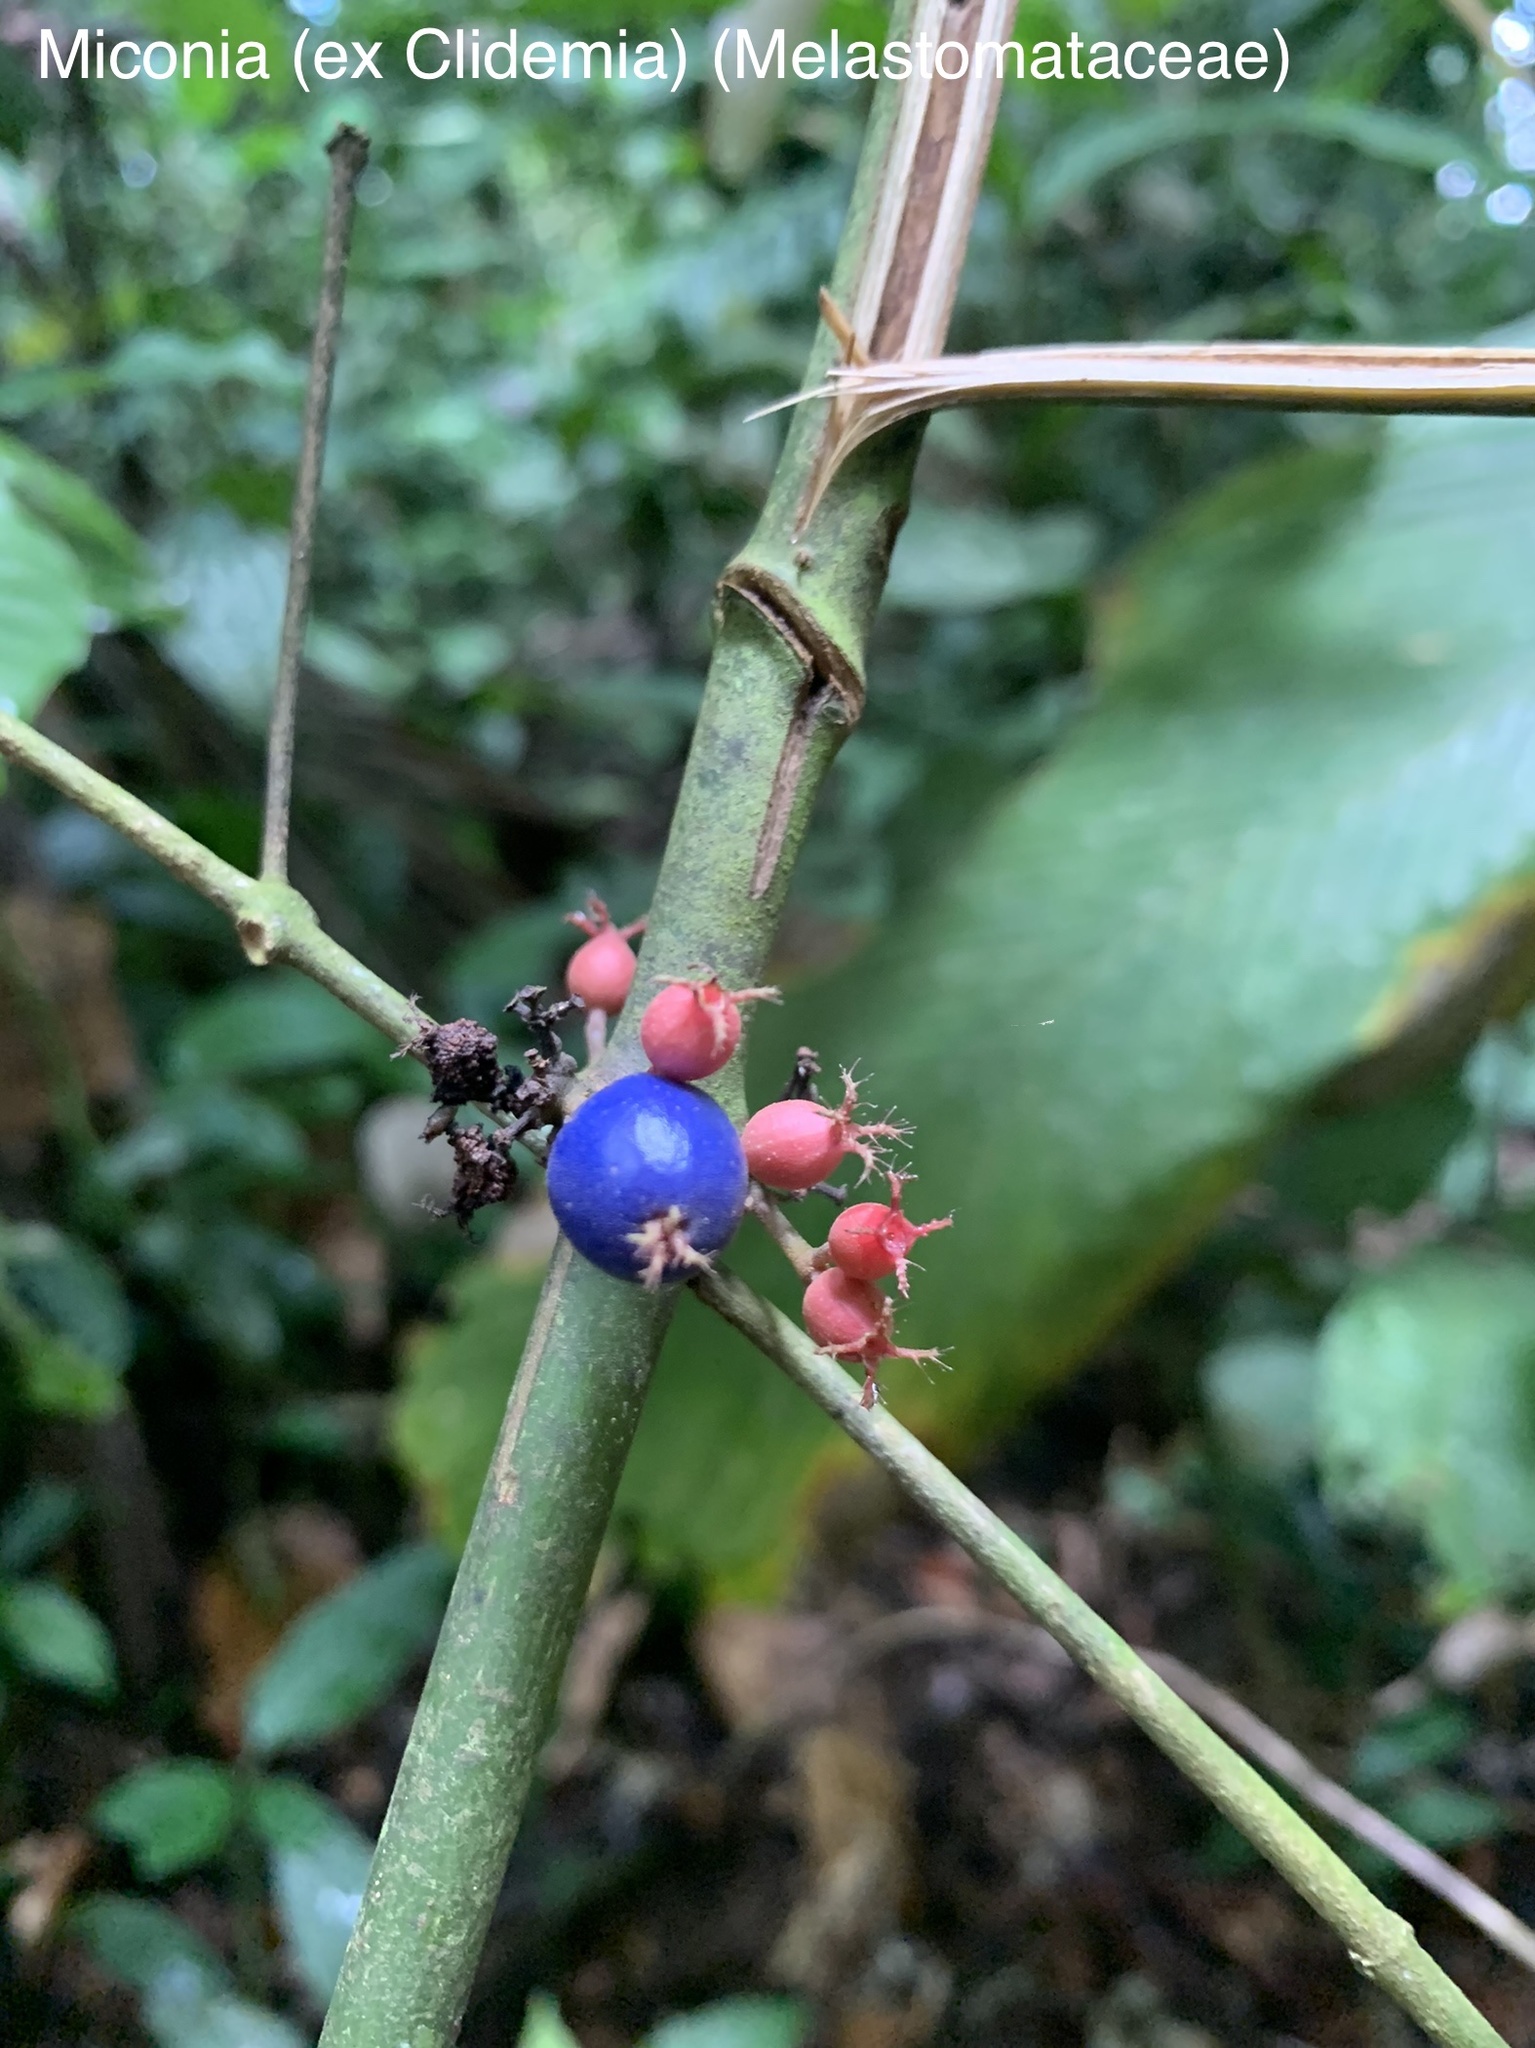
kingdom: Plantae
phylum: Tracheophyta
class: Magnoliopsida
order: Myrtales
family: Melastomataceae
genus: Miconia
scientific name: Miconia trichocalyx
